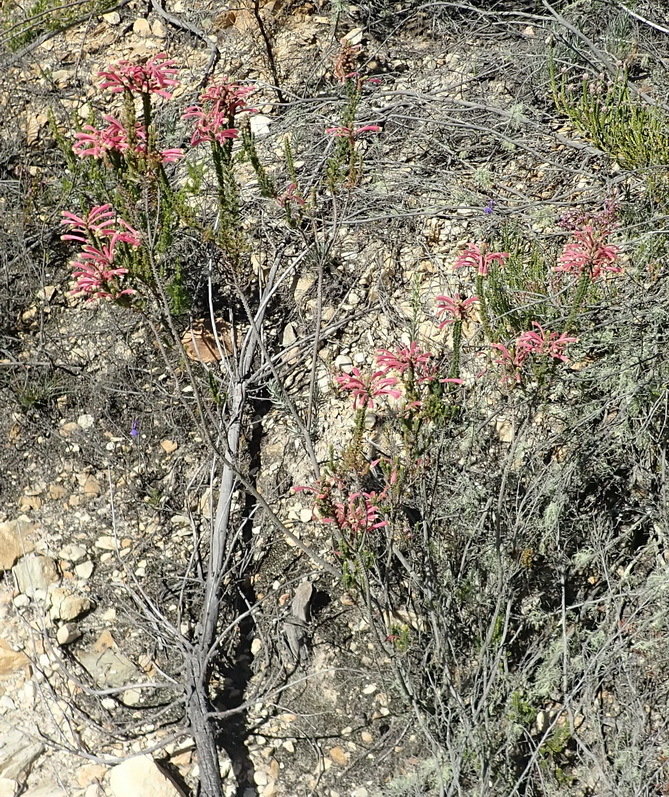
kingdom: Plantae
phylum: Tracheophyta
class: Magnoliopsida
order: Ericales
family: Ericaceae
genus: Erica
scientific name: Erica densifolia
